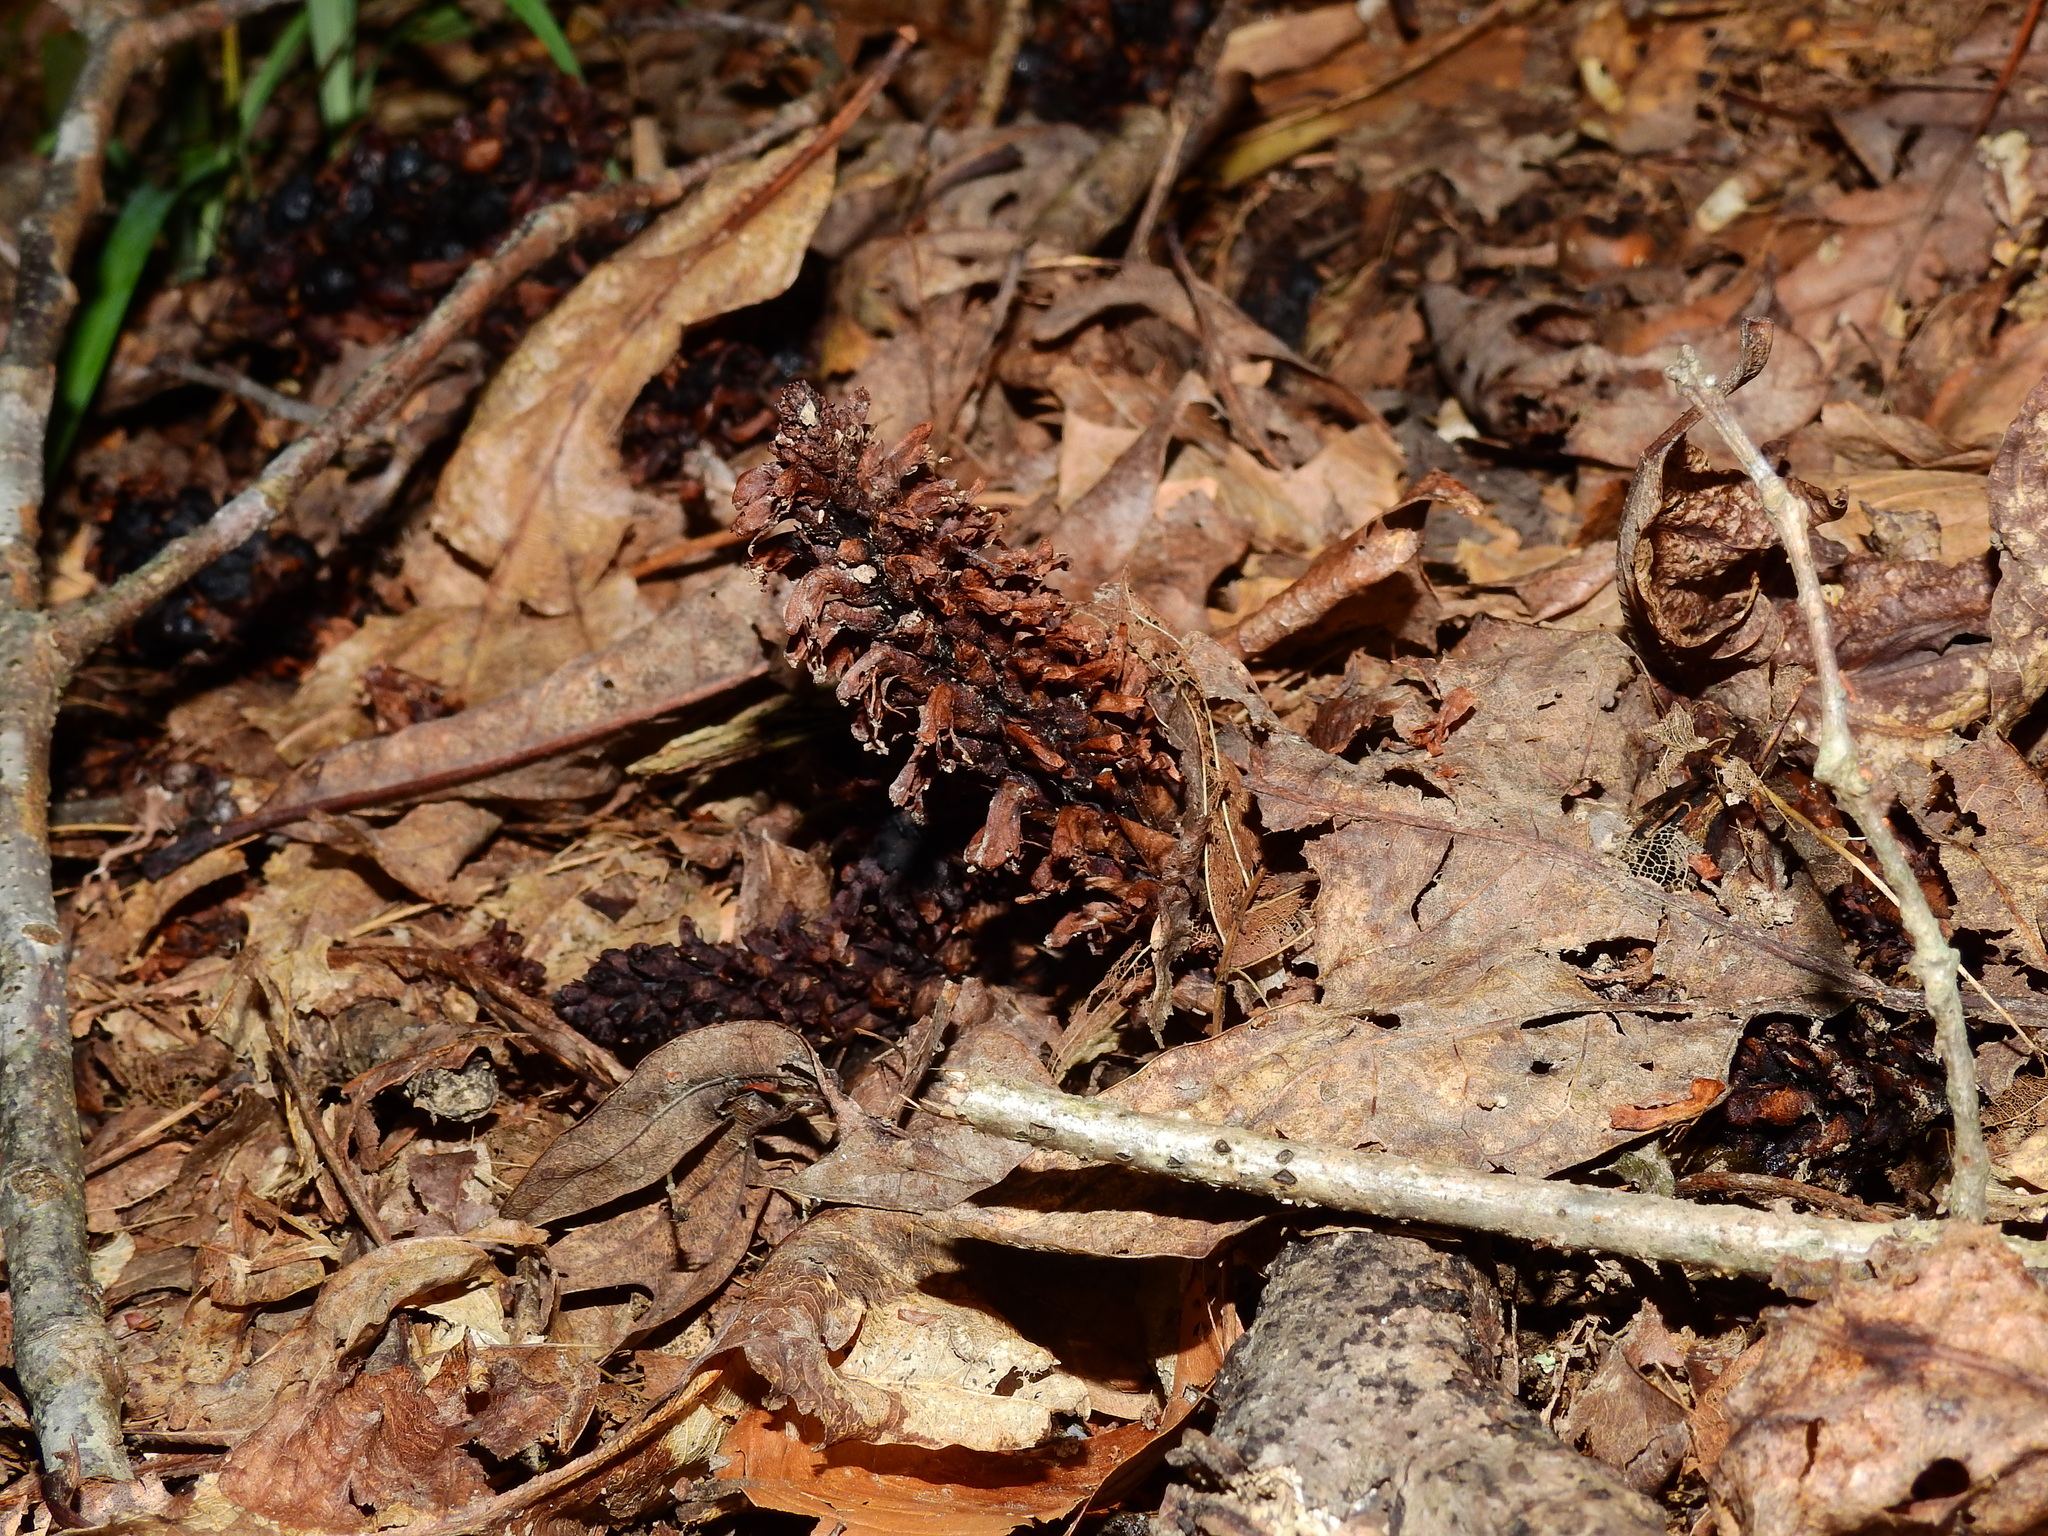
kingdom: Plantae
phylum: Tracheophyta
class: Magnoliopsida
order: Lamiales
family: Orobanchaceae
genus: Conopholis
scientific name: Conopholis americana
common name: American cancer-root
